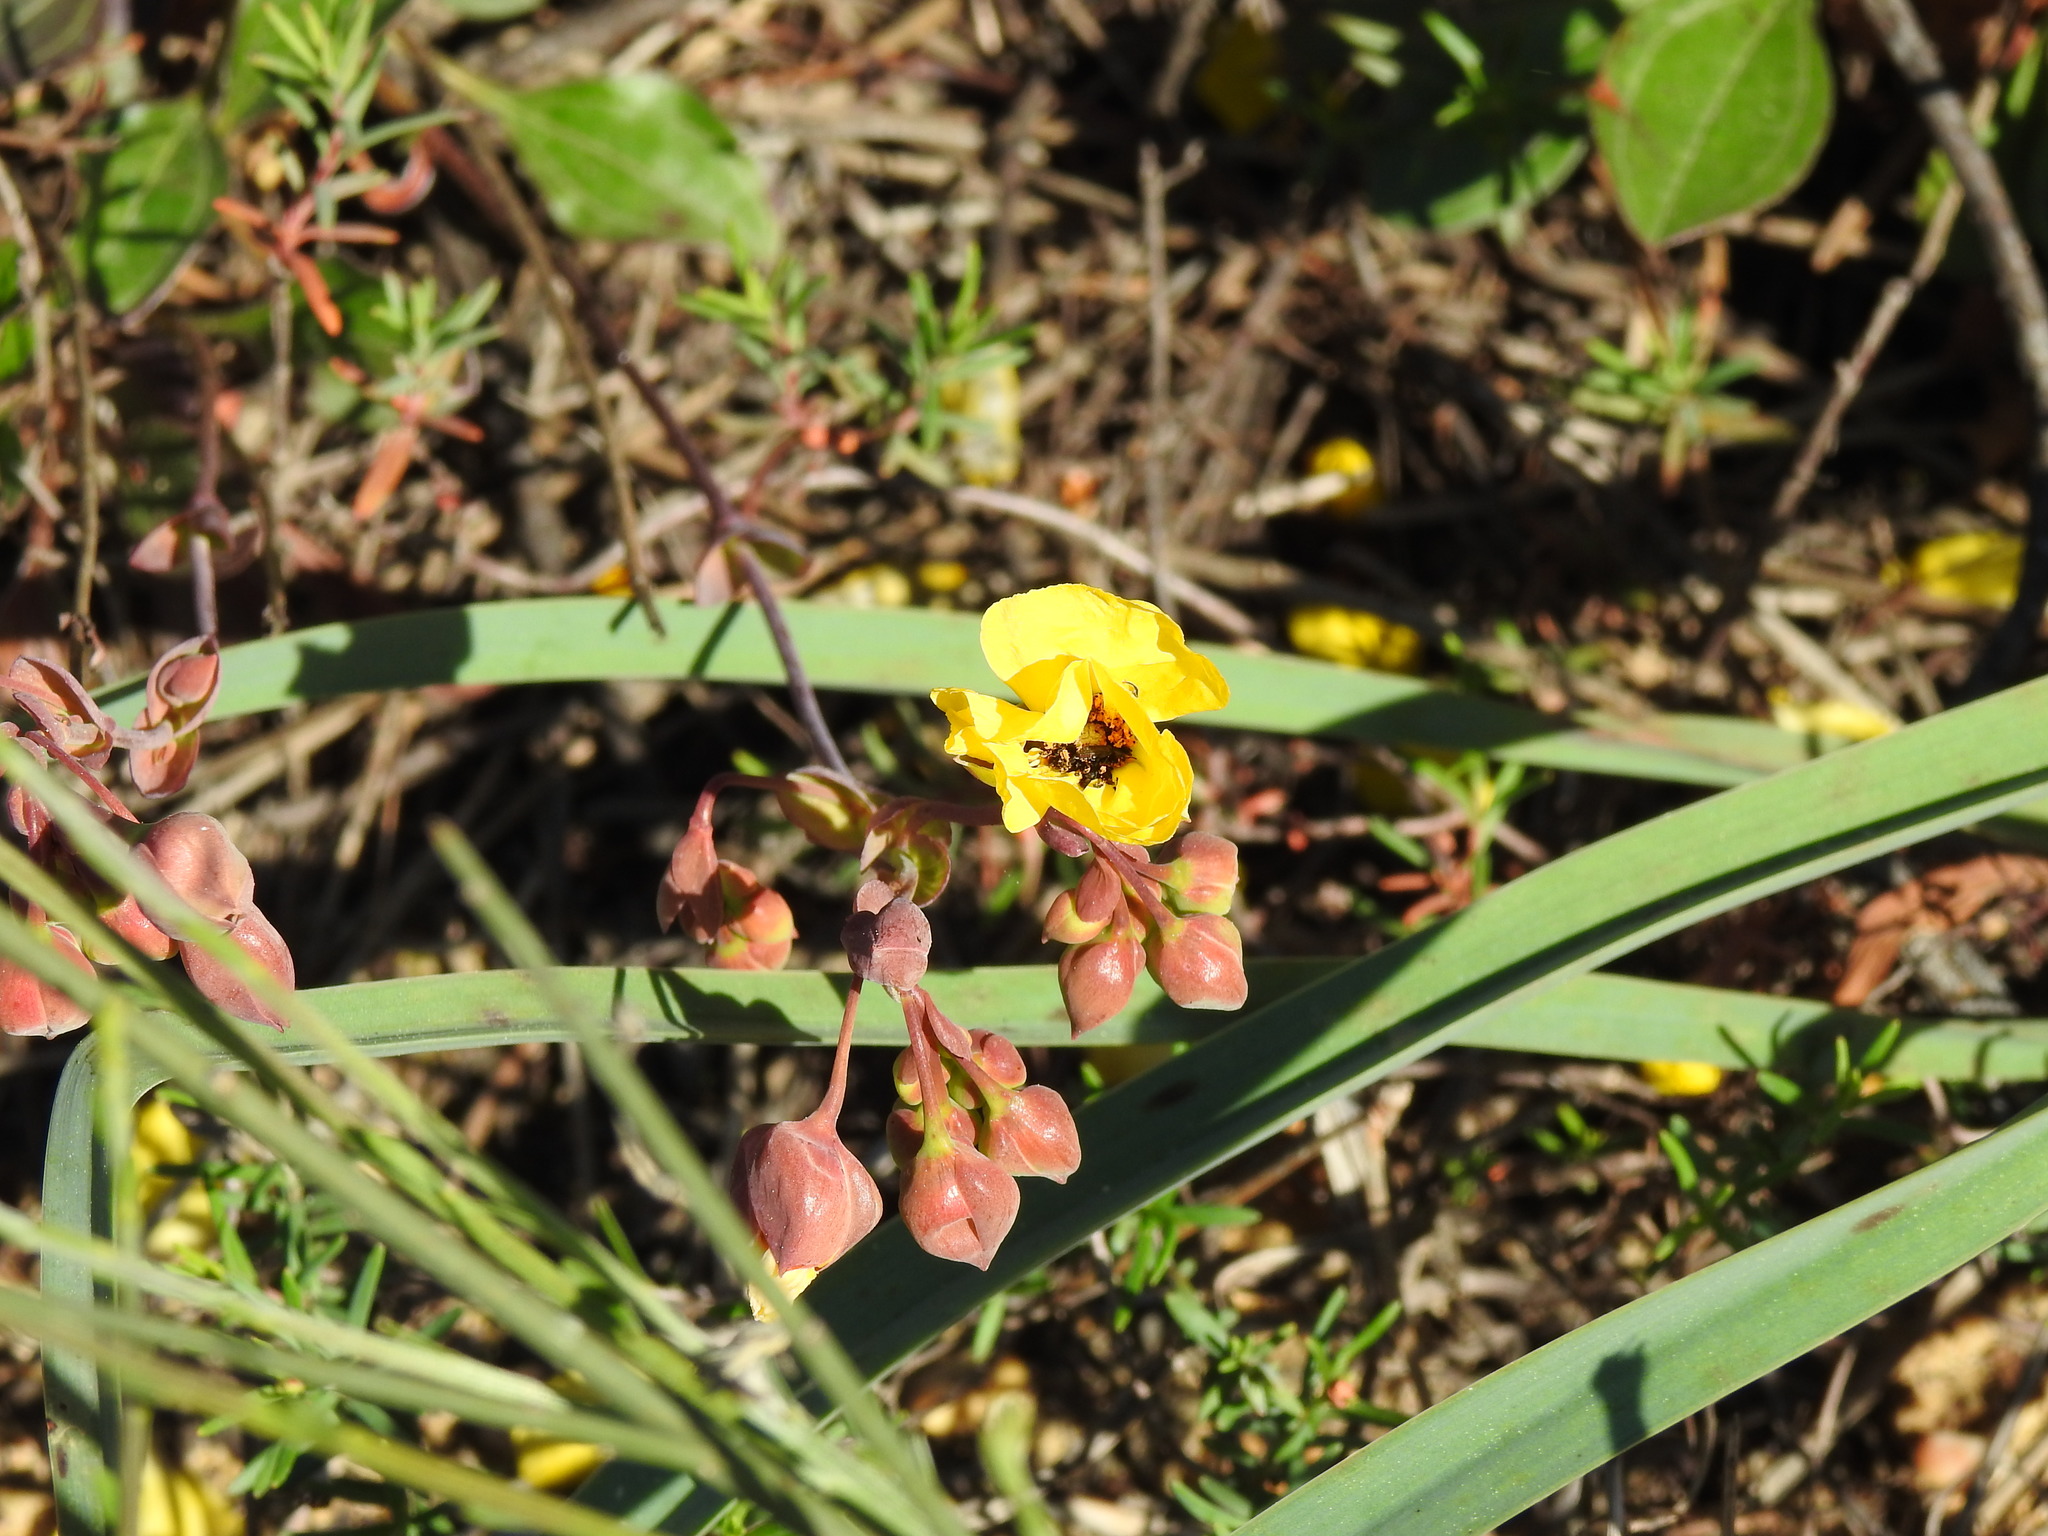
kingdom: Plantae
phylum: Tracheophyta
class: Magnoliopsida
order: Malvales
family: Cistaceae
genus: Tuberaria
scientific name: Tuberaria globulariifolia
